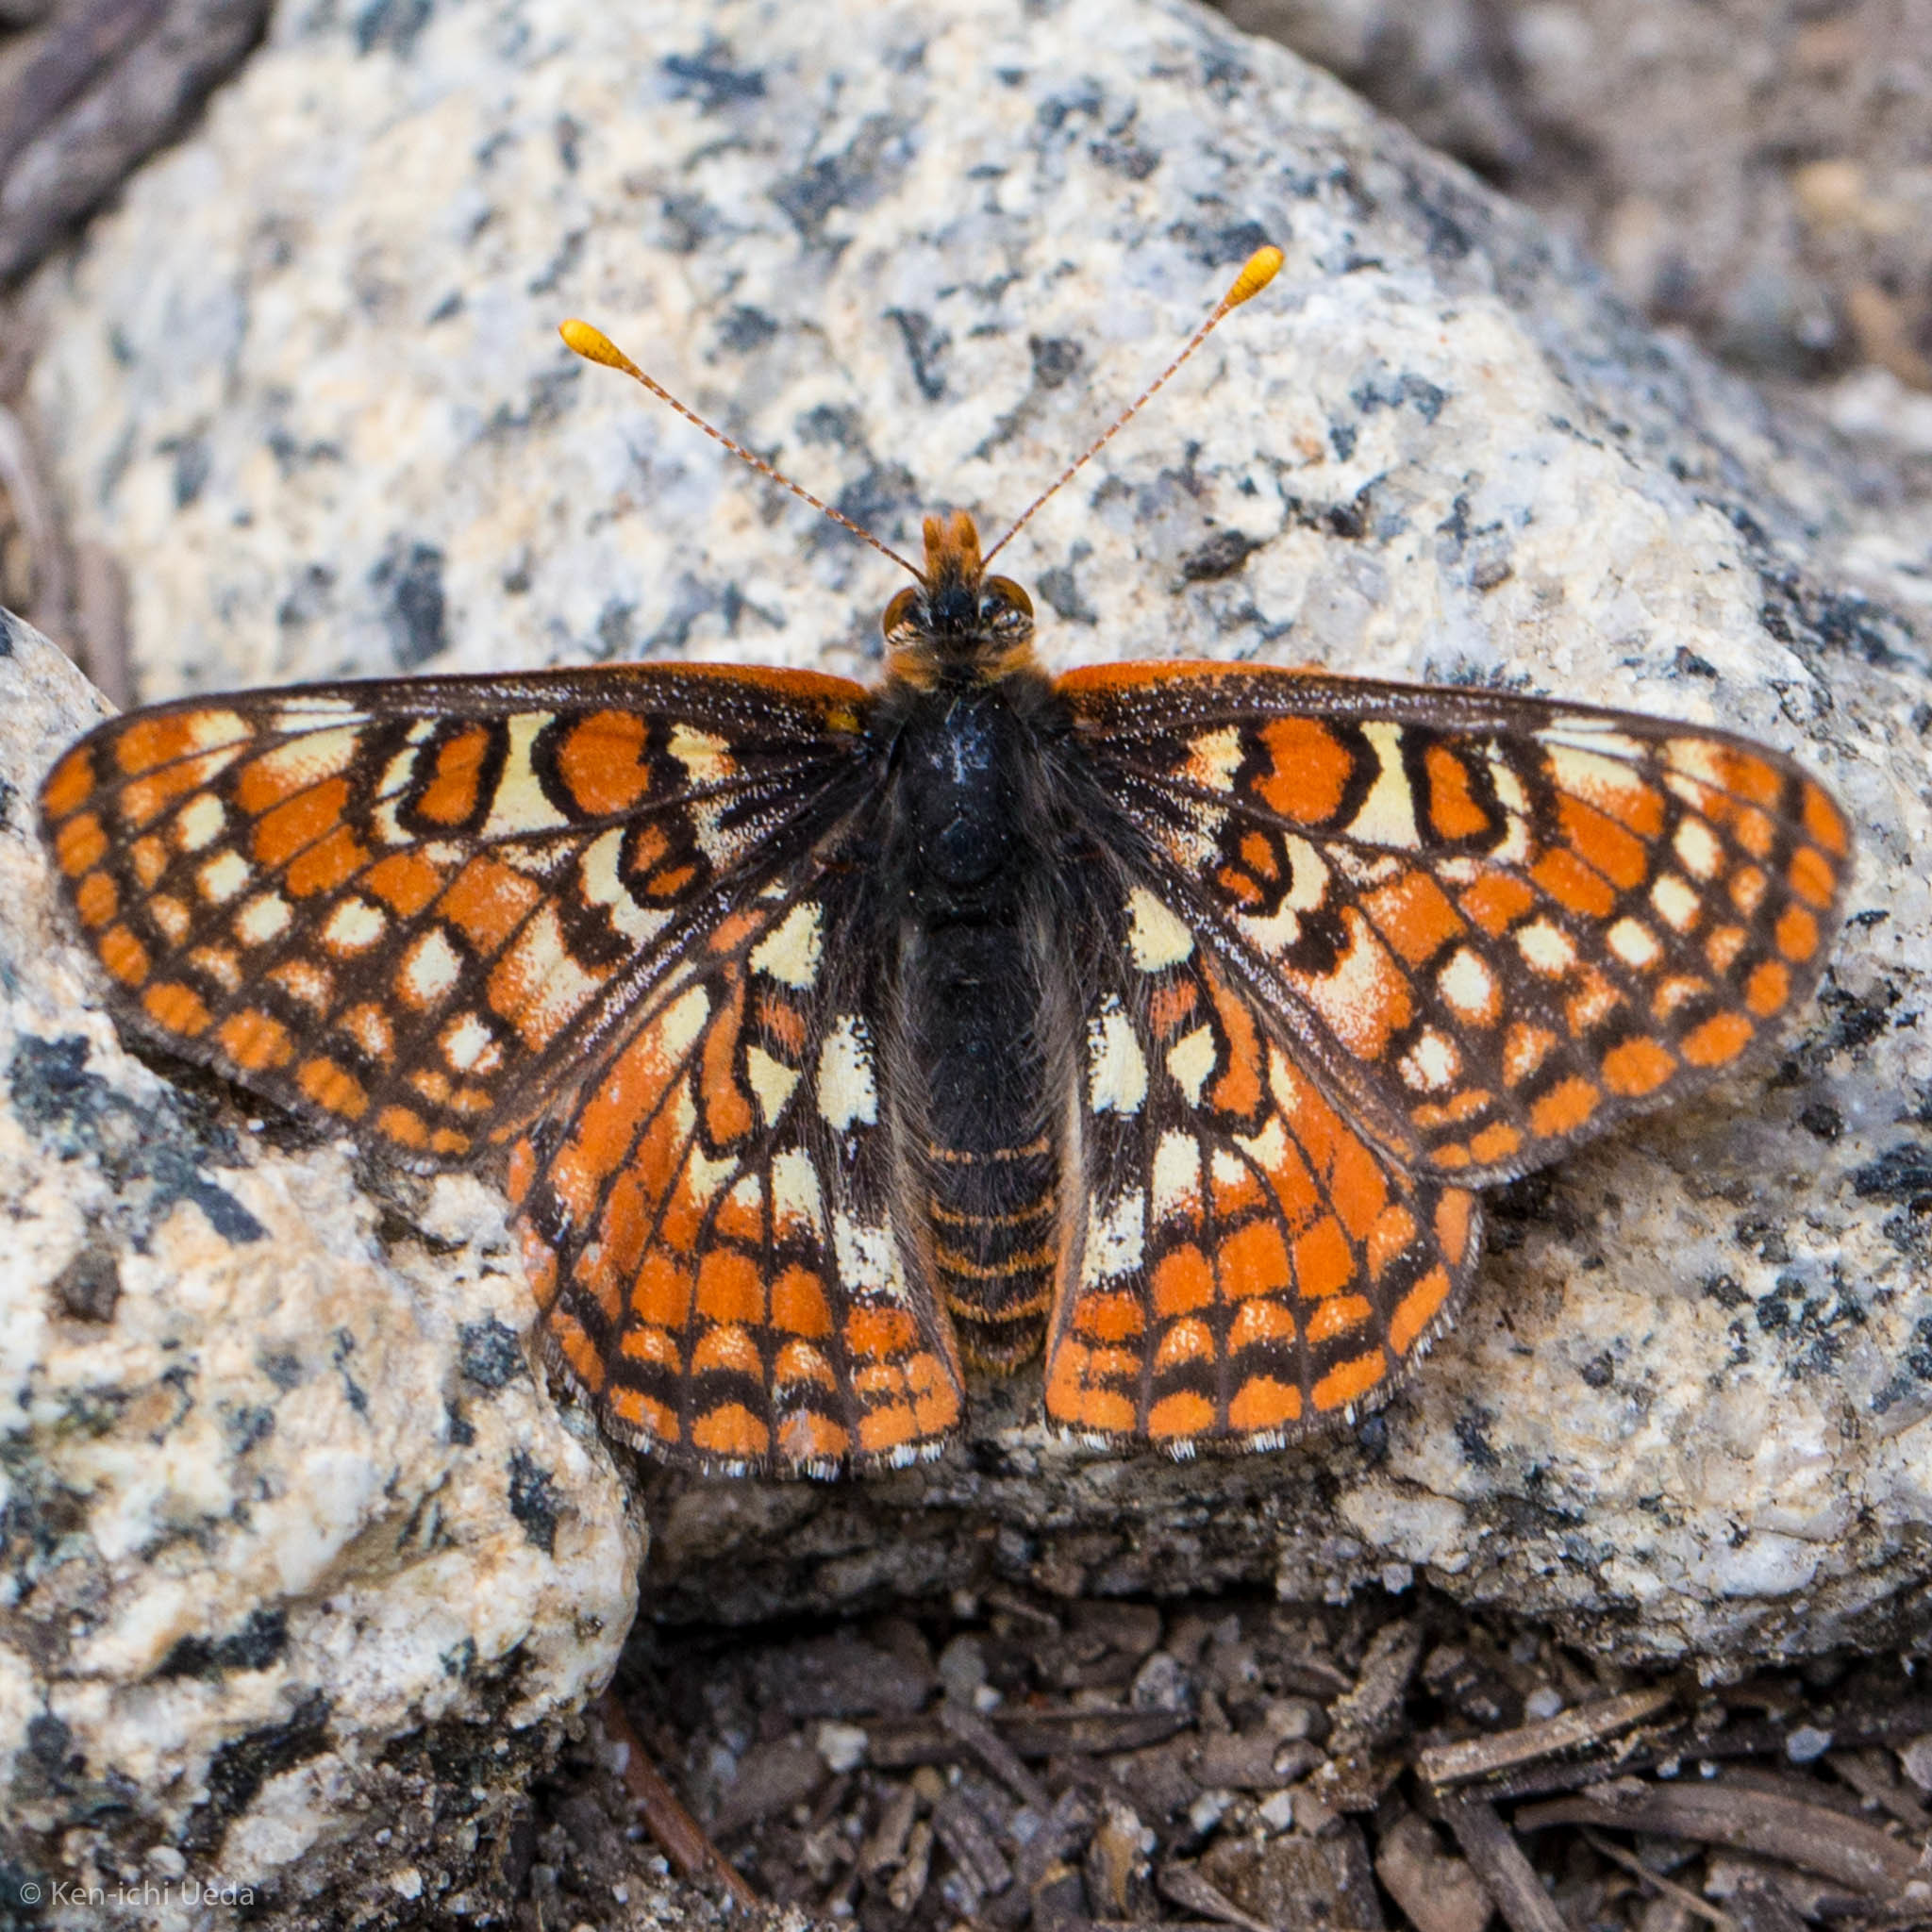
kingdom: Animalia
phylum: Arthropoda
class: Insecta
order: Lepidoptera
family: Nymphalidae
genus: Occidryas
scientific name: Occidryas editha
